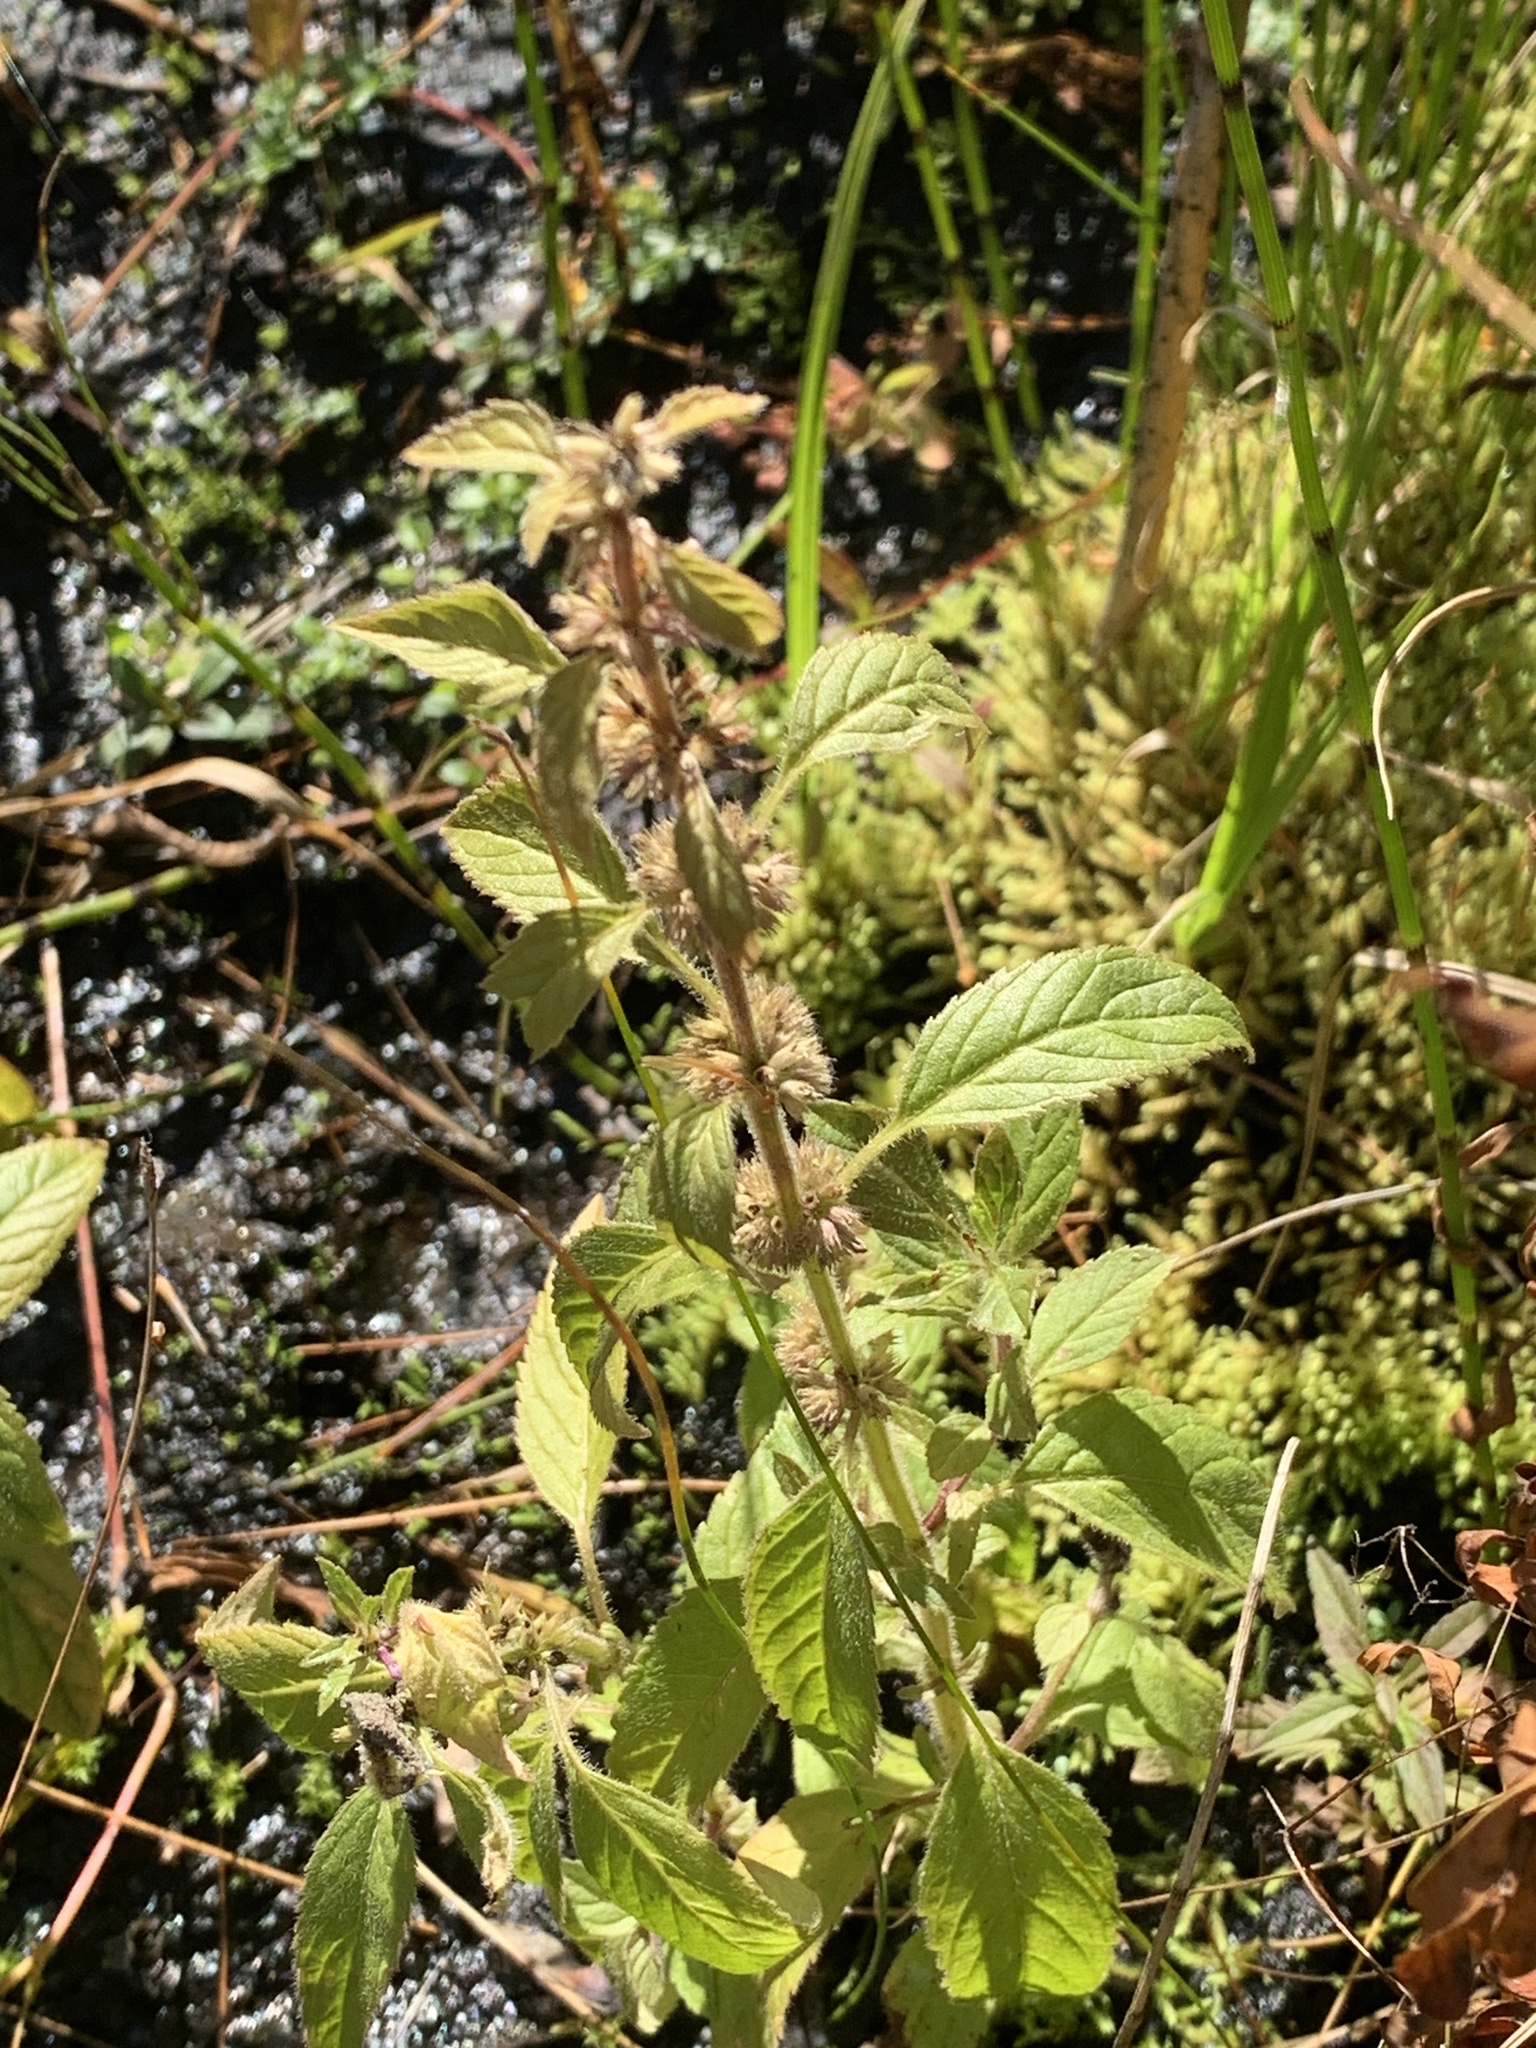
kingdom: Plantae
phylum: Tracheophyta
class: Magnoliopsida
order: Lamiales
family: Lamiaceae
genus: Mentha
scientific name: Mentha canadensis
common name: American corn mint
